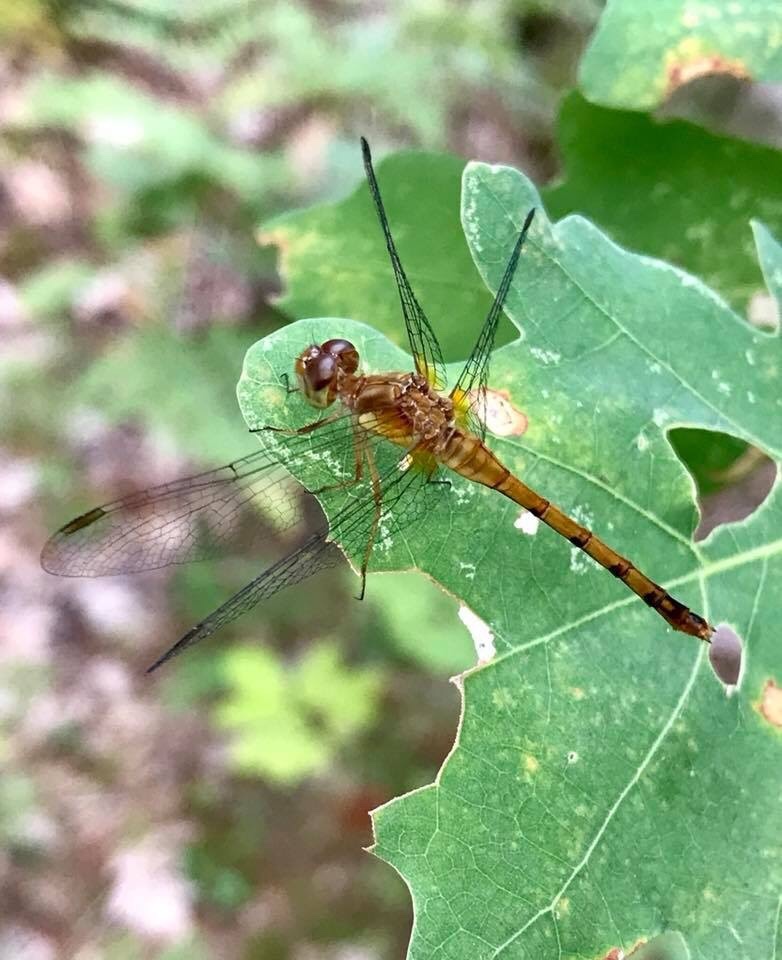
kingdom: Animalia
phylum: Arthropoda
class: Insecta
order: Odonata
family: Libellulidae
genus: Sympetrum
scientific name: Sympetrum vicinum
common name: Autumn meadowhawk
